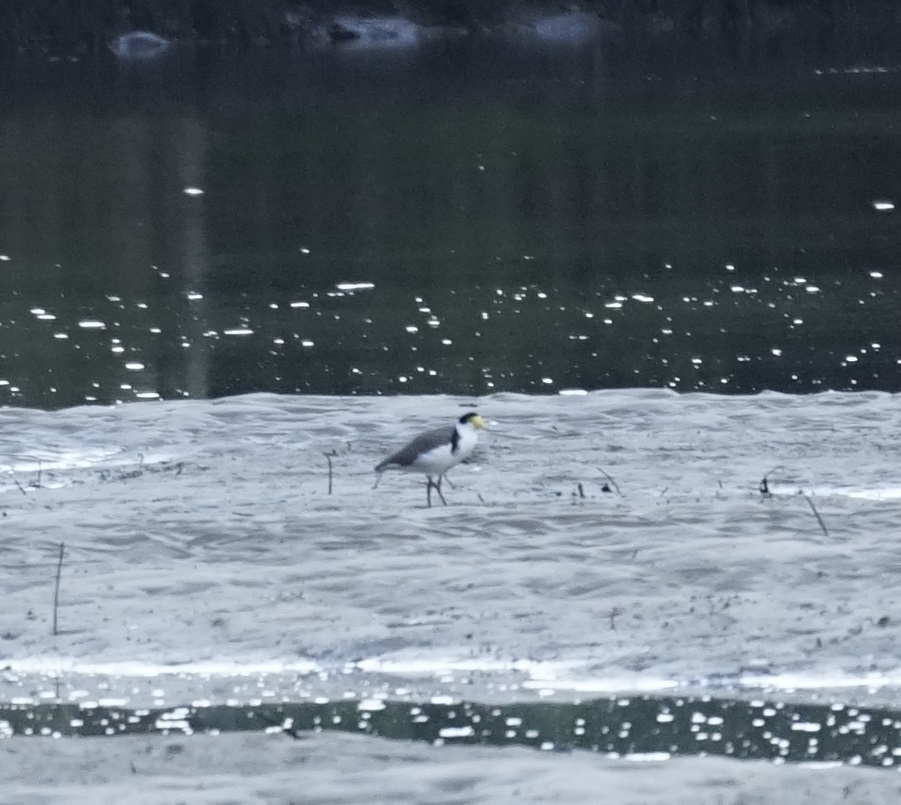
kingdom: Animalia
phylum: Chordata
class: Aves
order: Charadriiformes
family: Charadriidae
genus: Vanellus
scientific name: Vanellus miles
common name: Masked lapwing
